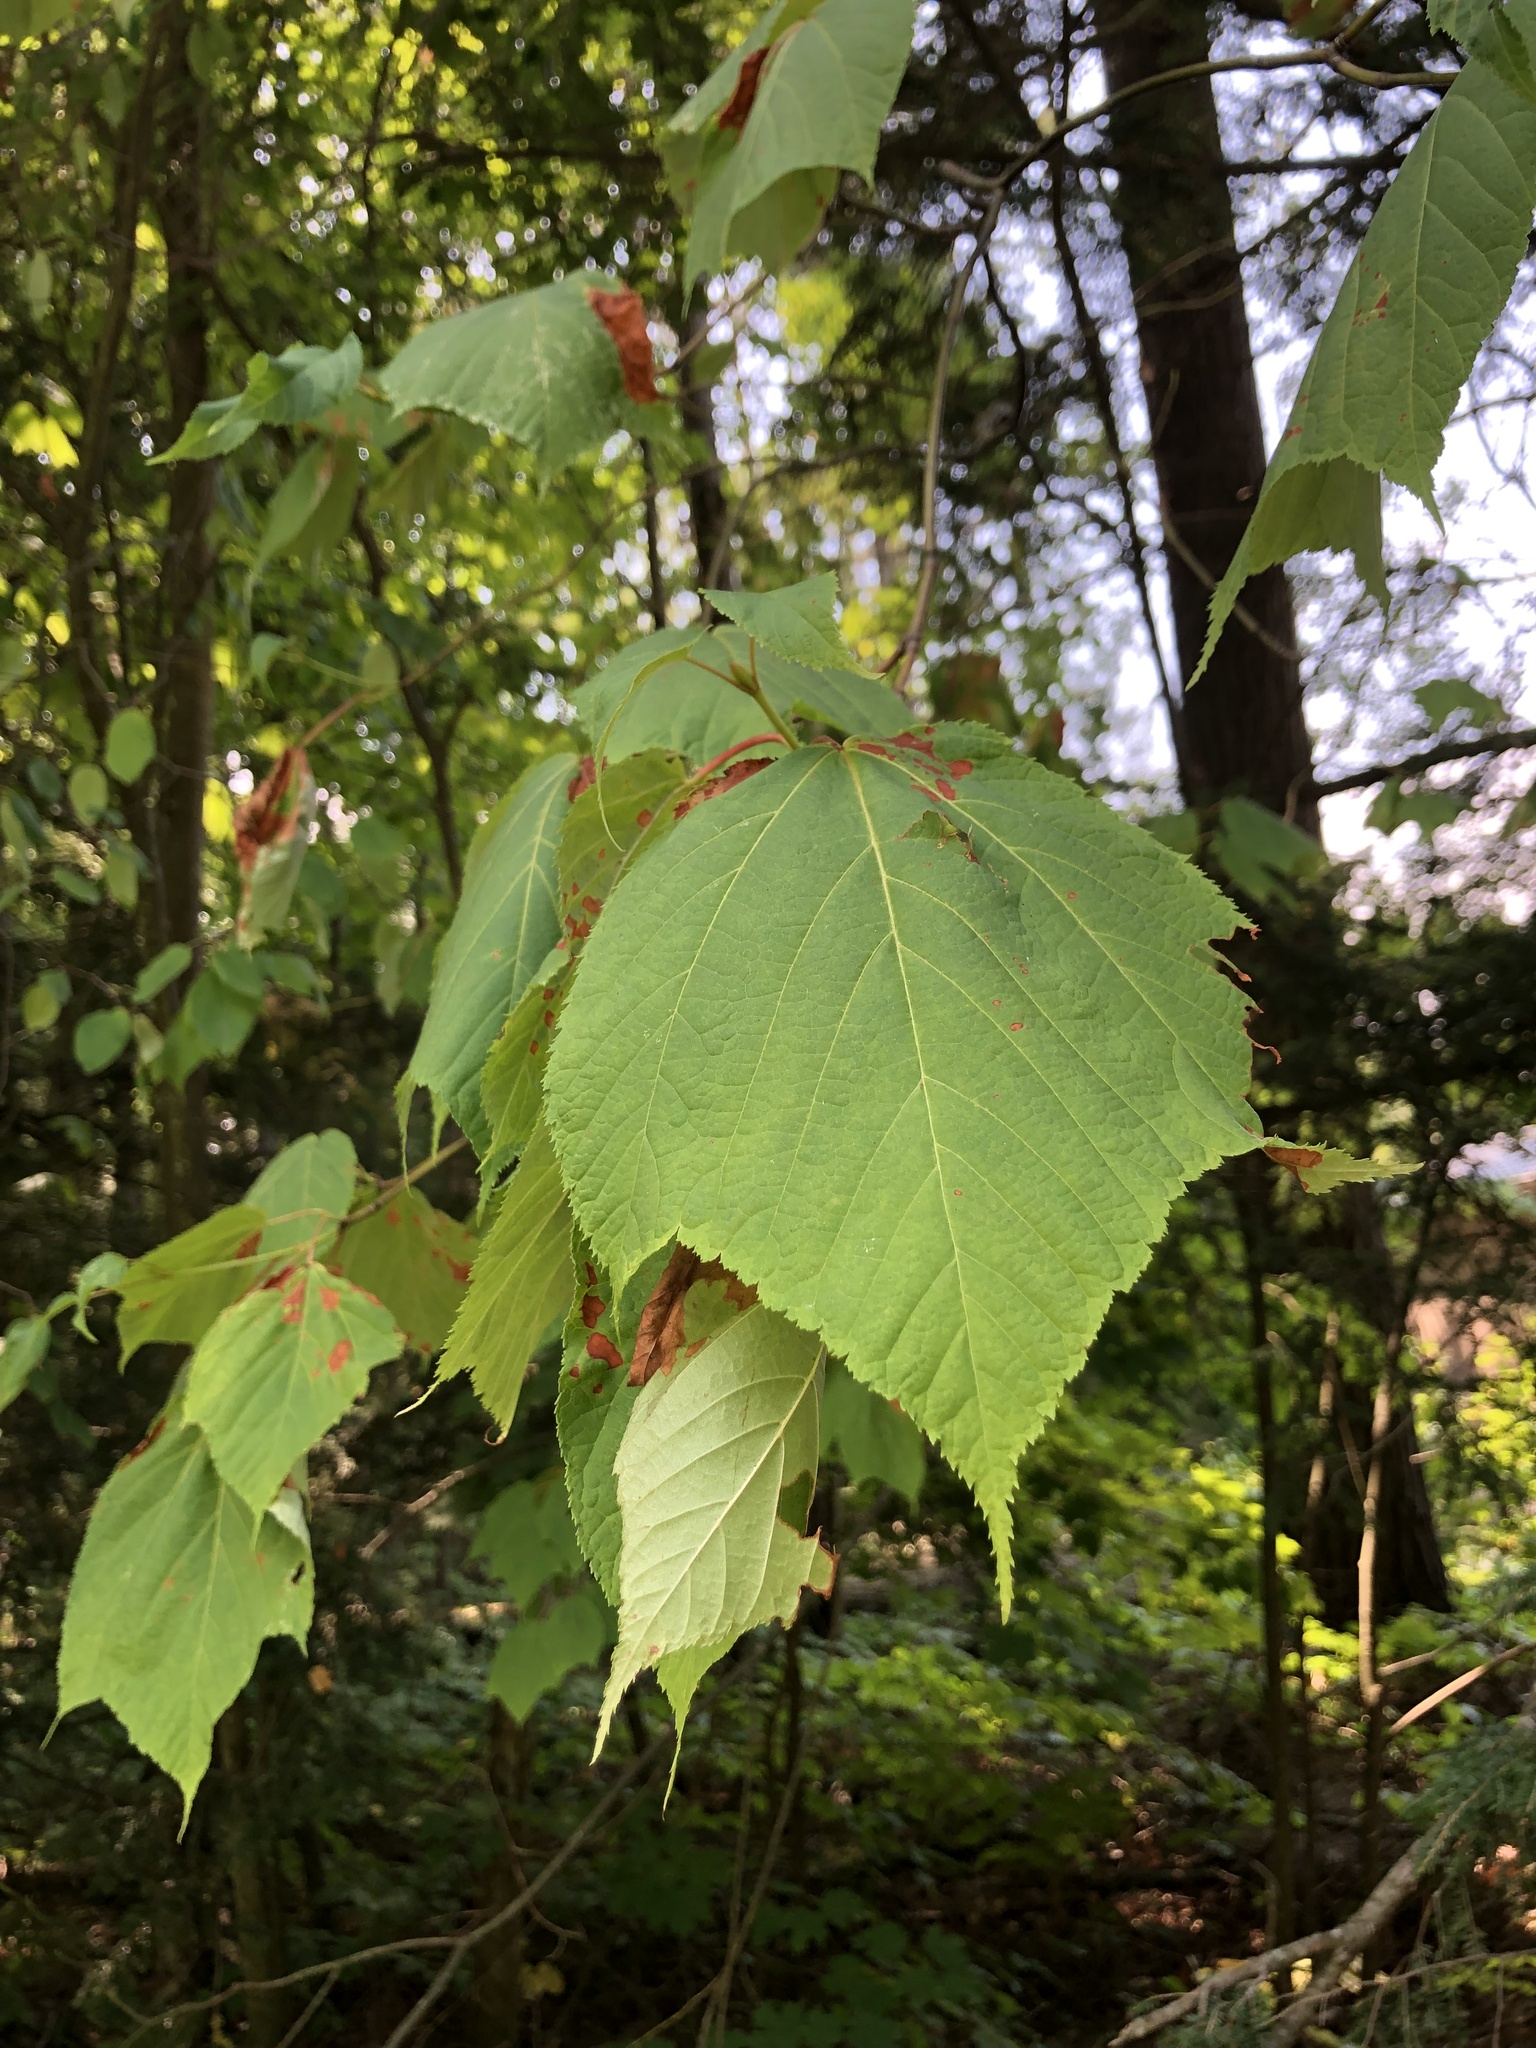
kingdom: Plantae
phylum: Tracheophyta
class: Magnoliopsida
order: Sapindales
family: Sapindaceae
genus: Acer
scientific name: Acer pensylvanicum
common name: Moosewood
